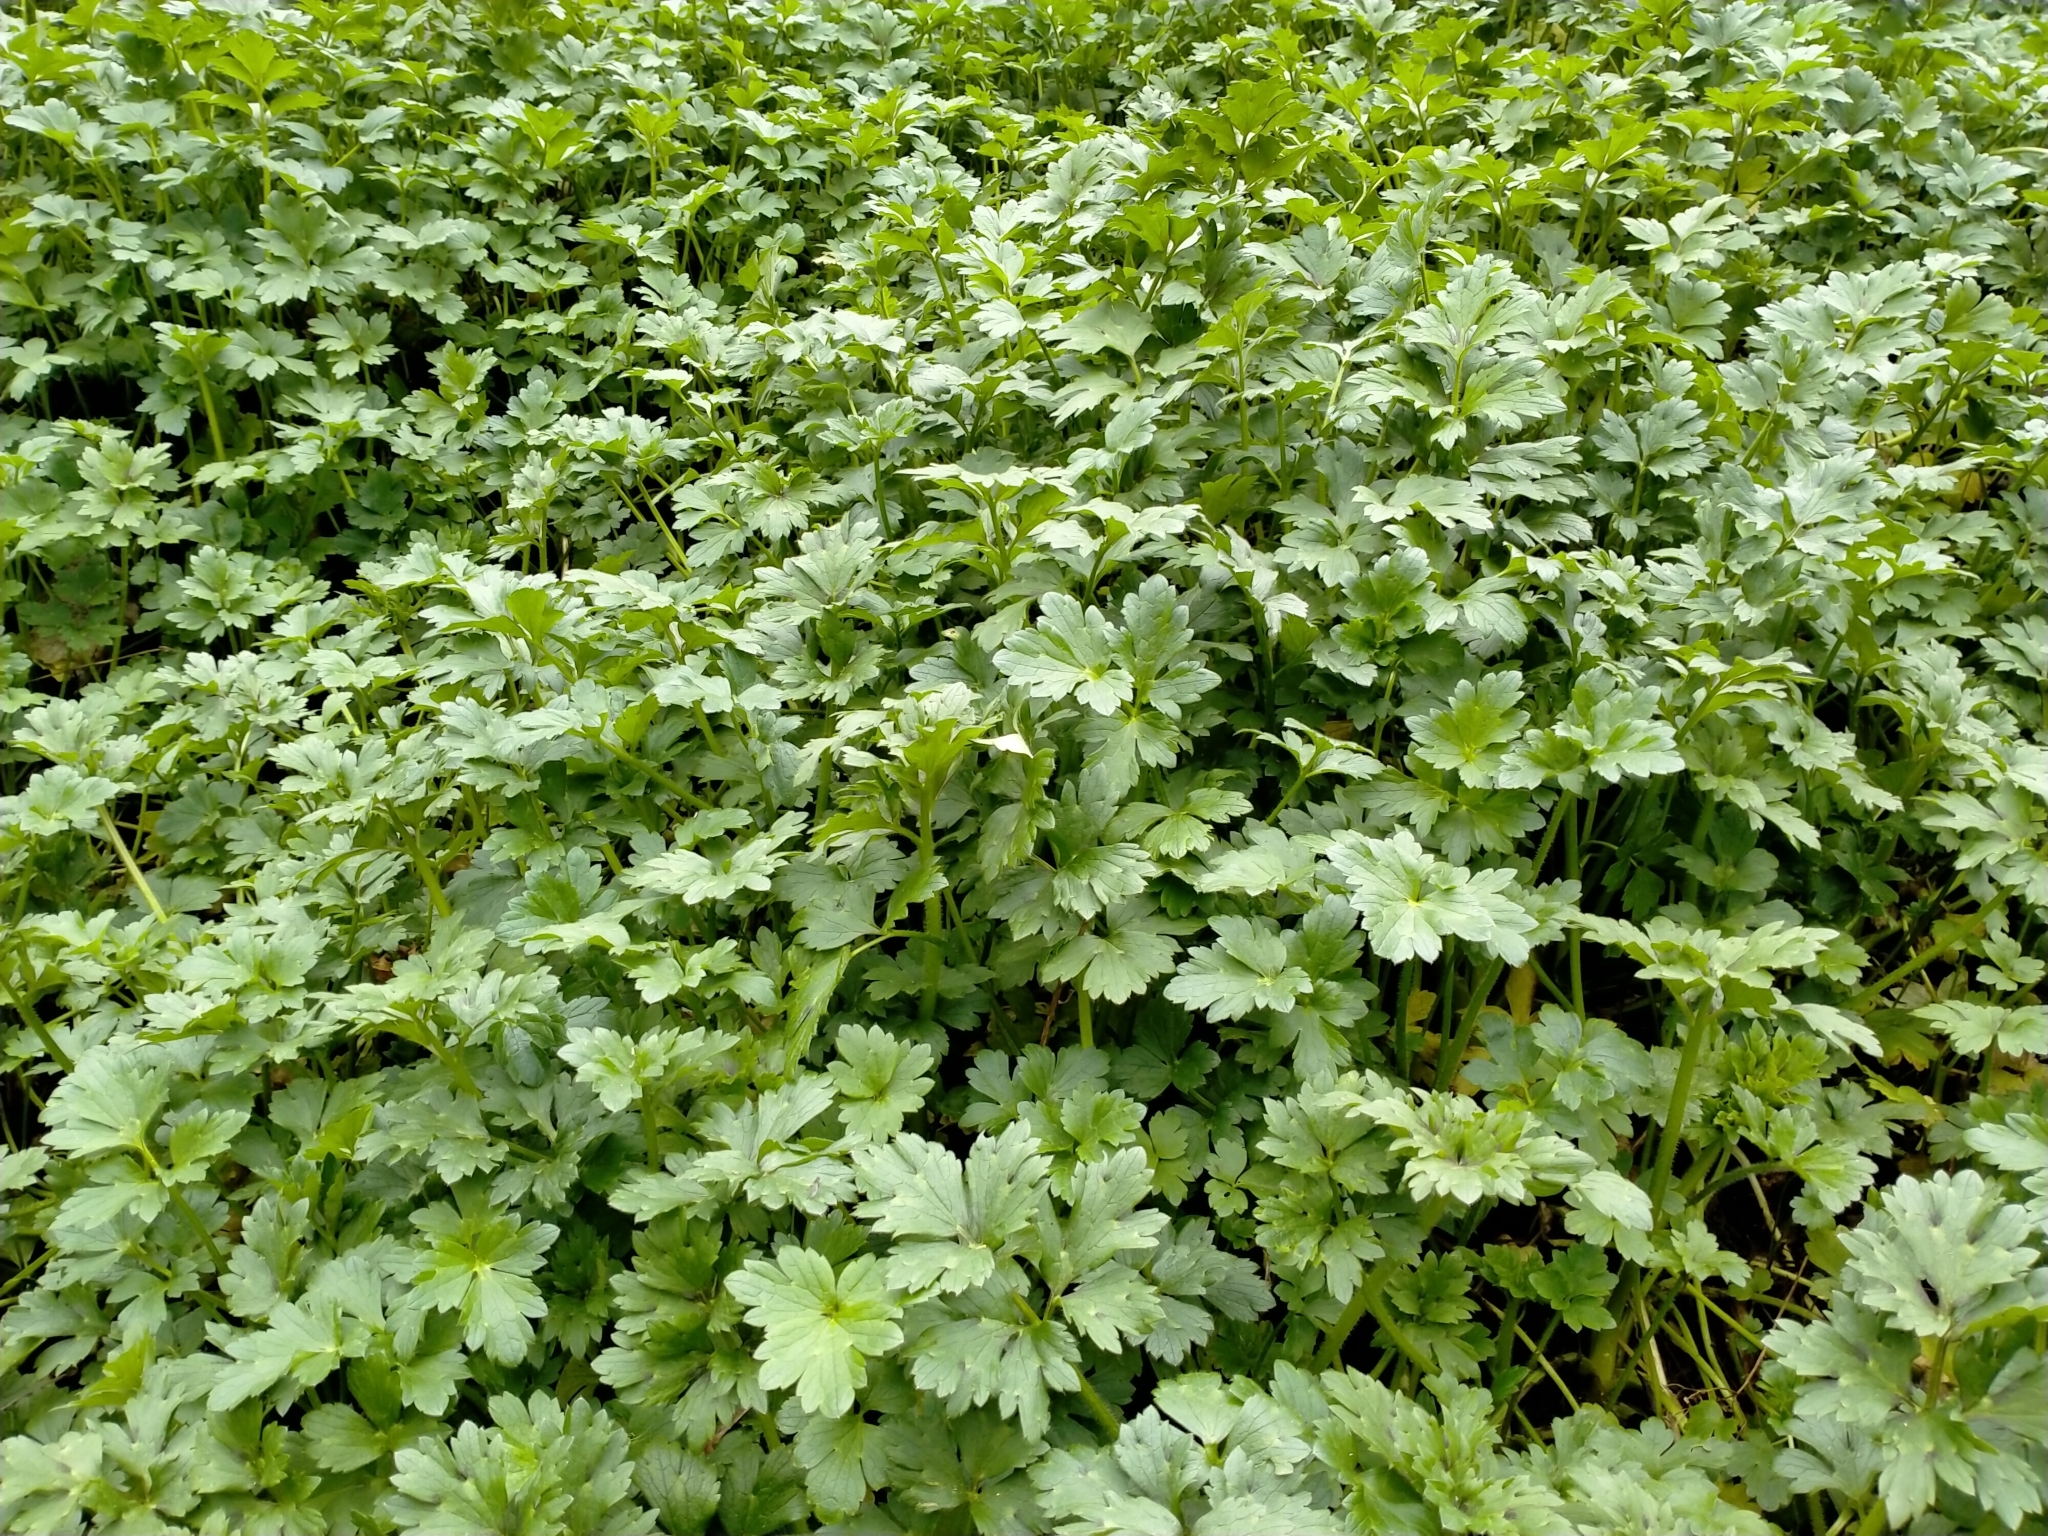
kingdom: Plantae
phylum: Tracheophyta
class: Magnoliopsida
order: Ranunculales
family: Ranunculaceae
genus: Ranunculus
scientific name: Ranunculus repens
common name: Creeping buttercup
